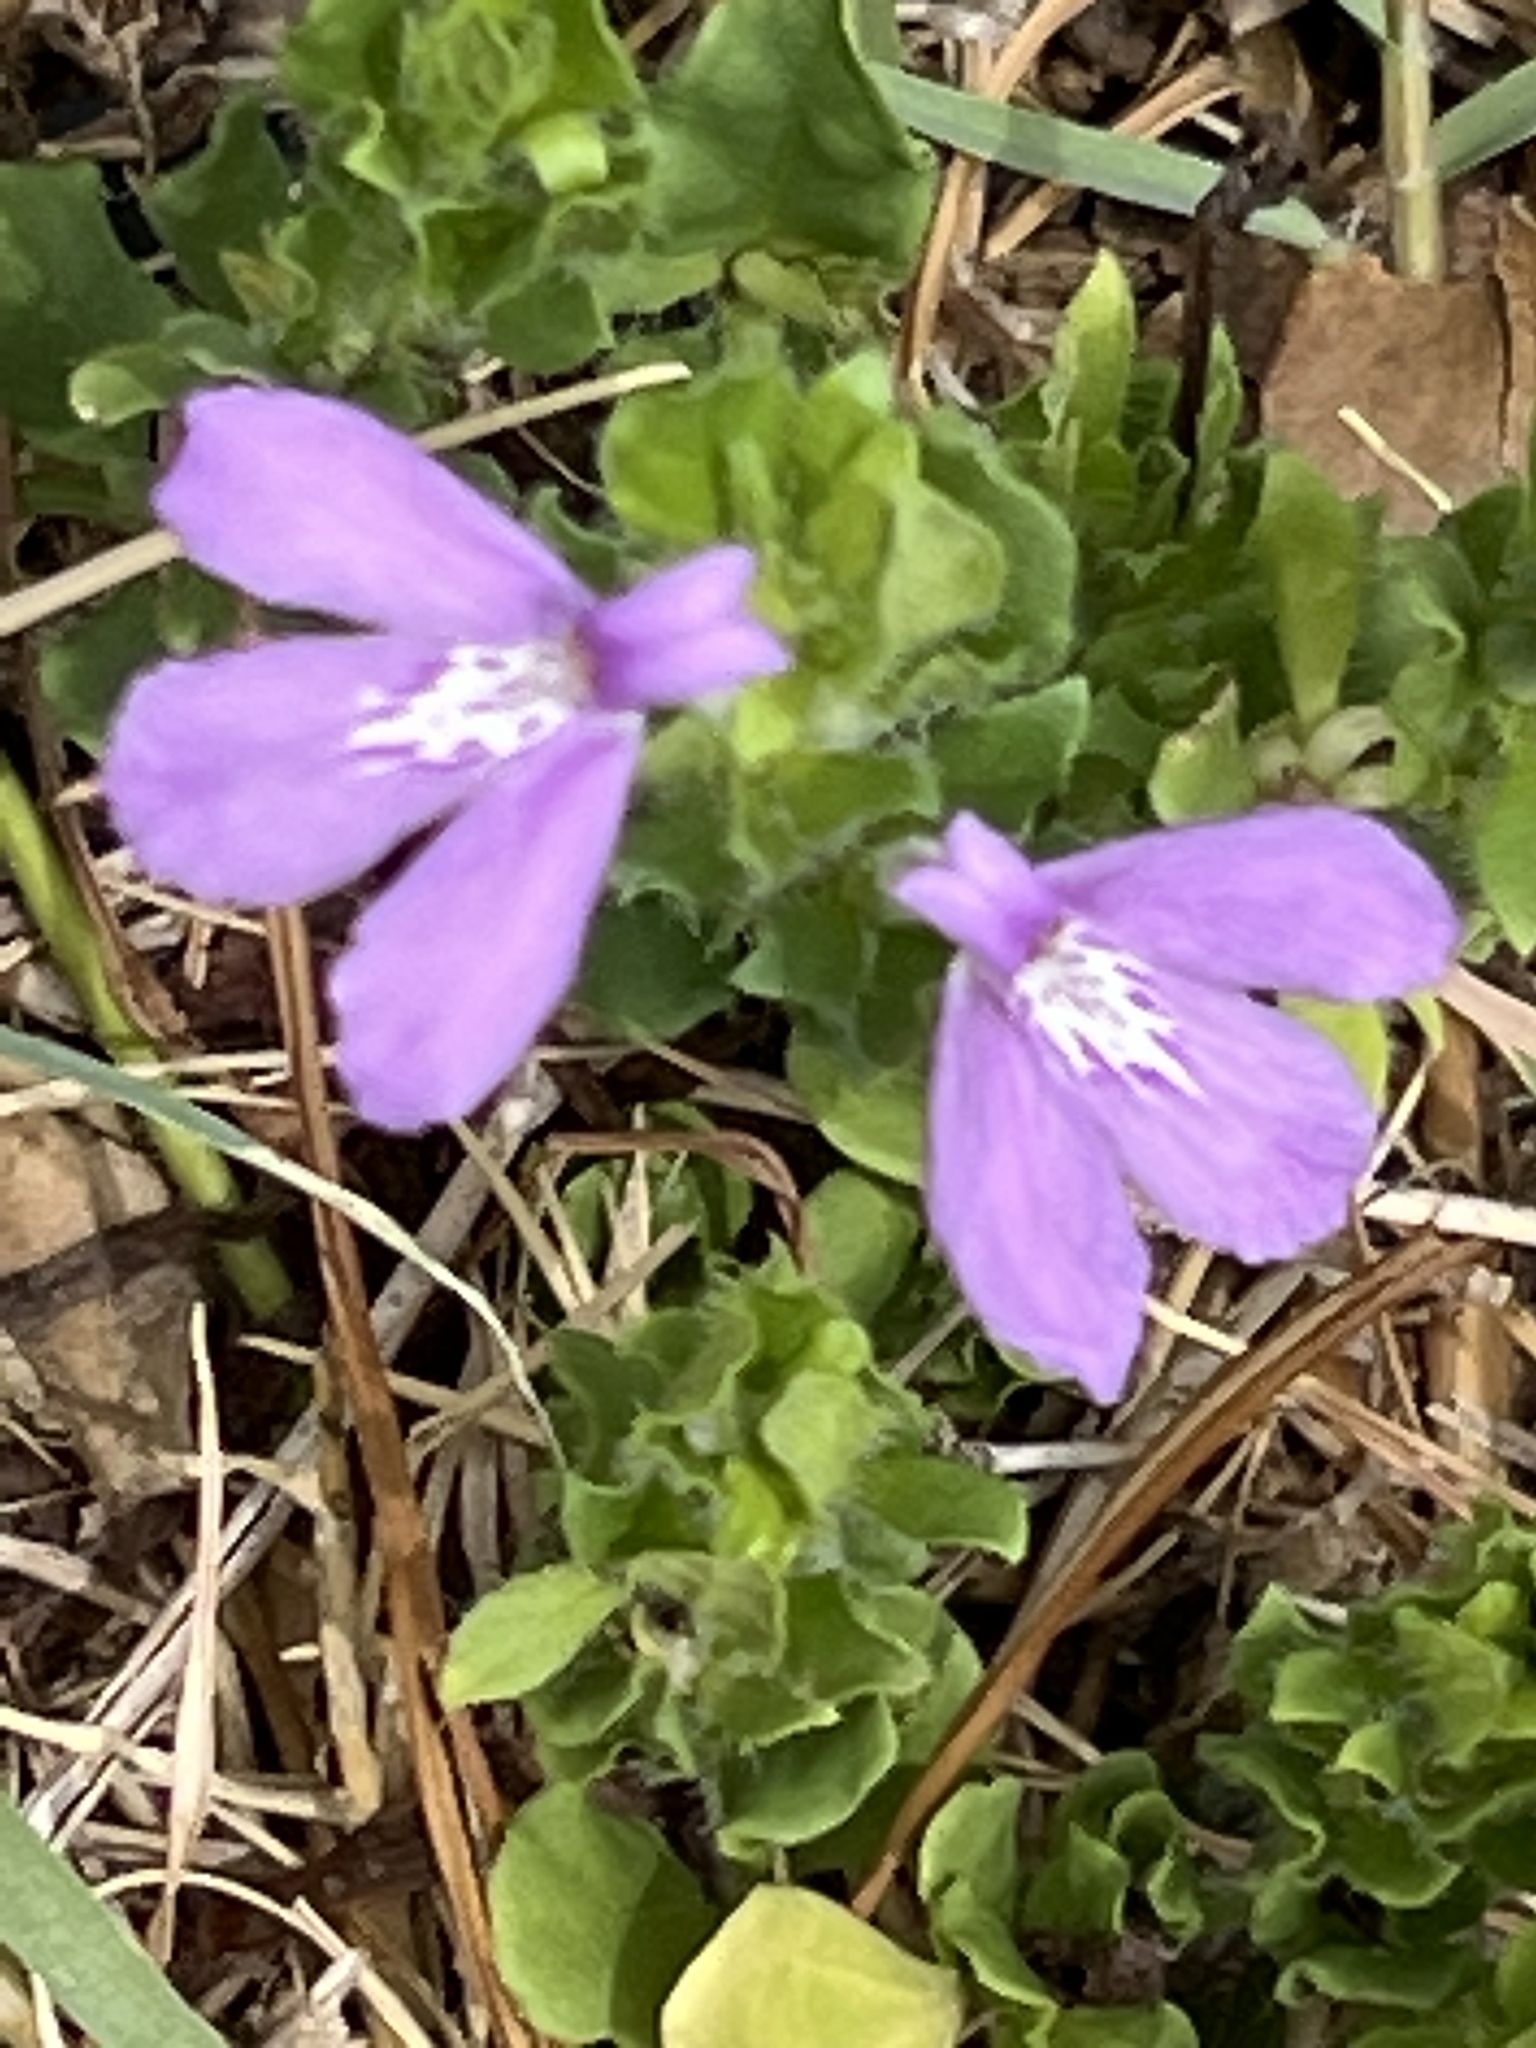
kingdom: Plantae
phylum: Tracheophyta
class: Magnoliopsida
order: Lamiales
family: Acanthaceae
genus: Justicia
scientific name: Justicia pilosella
